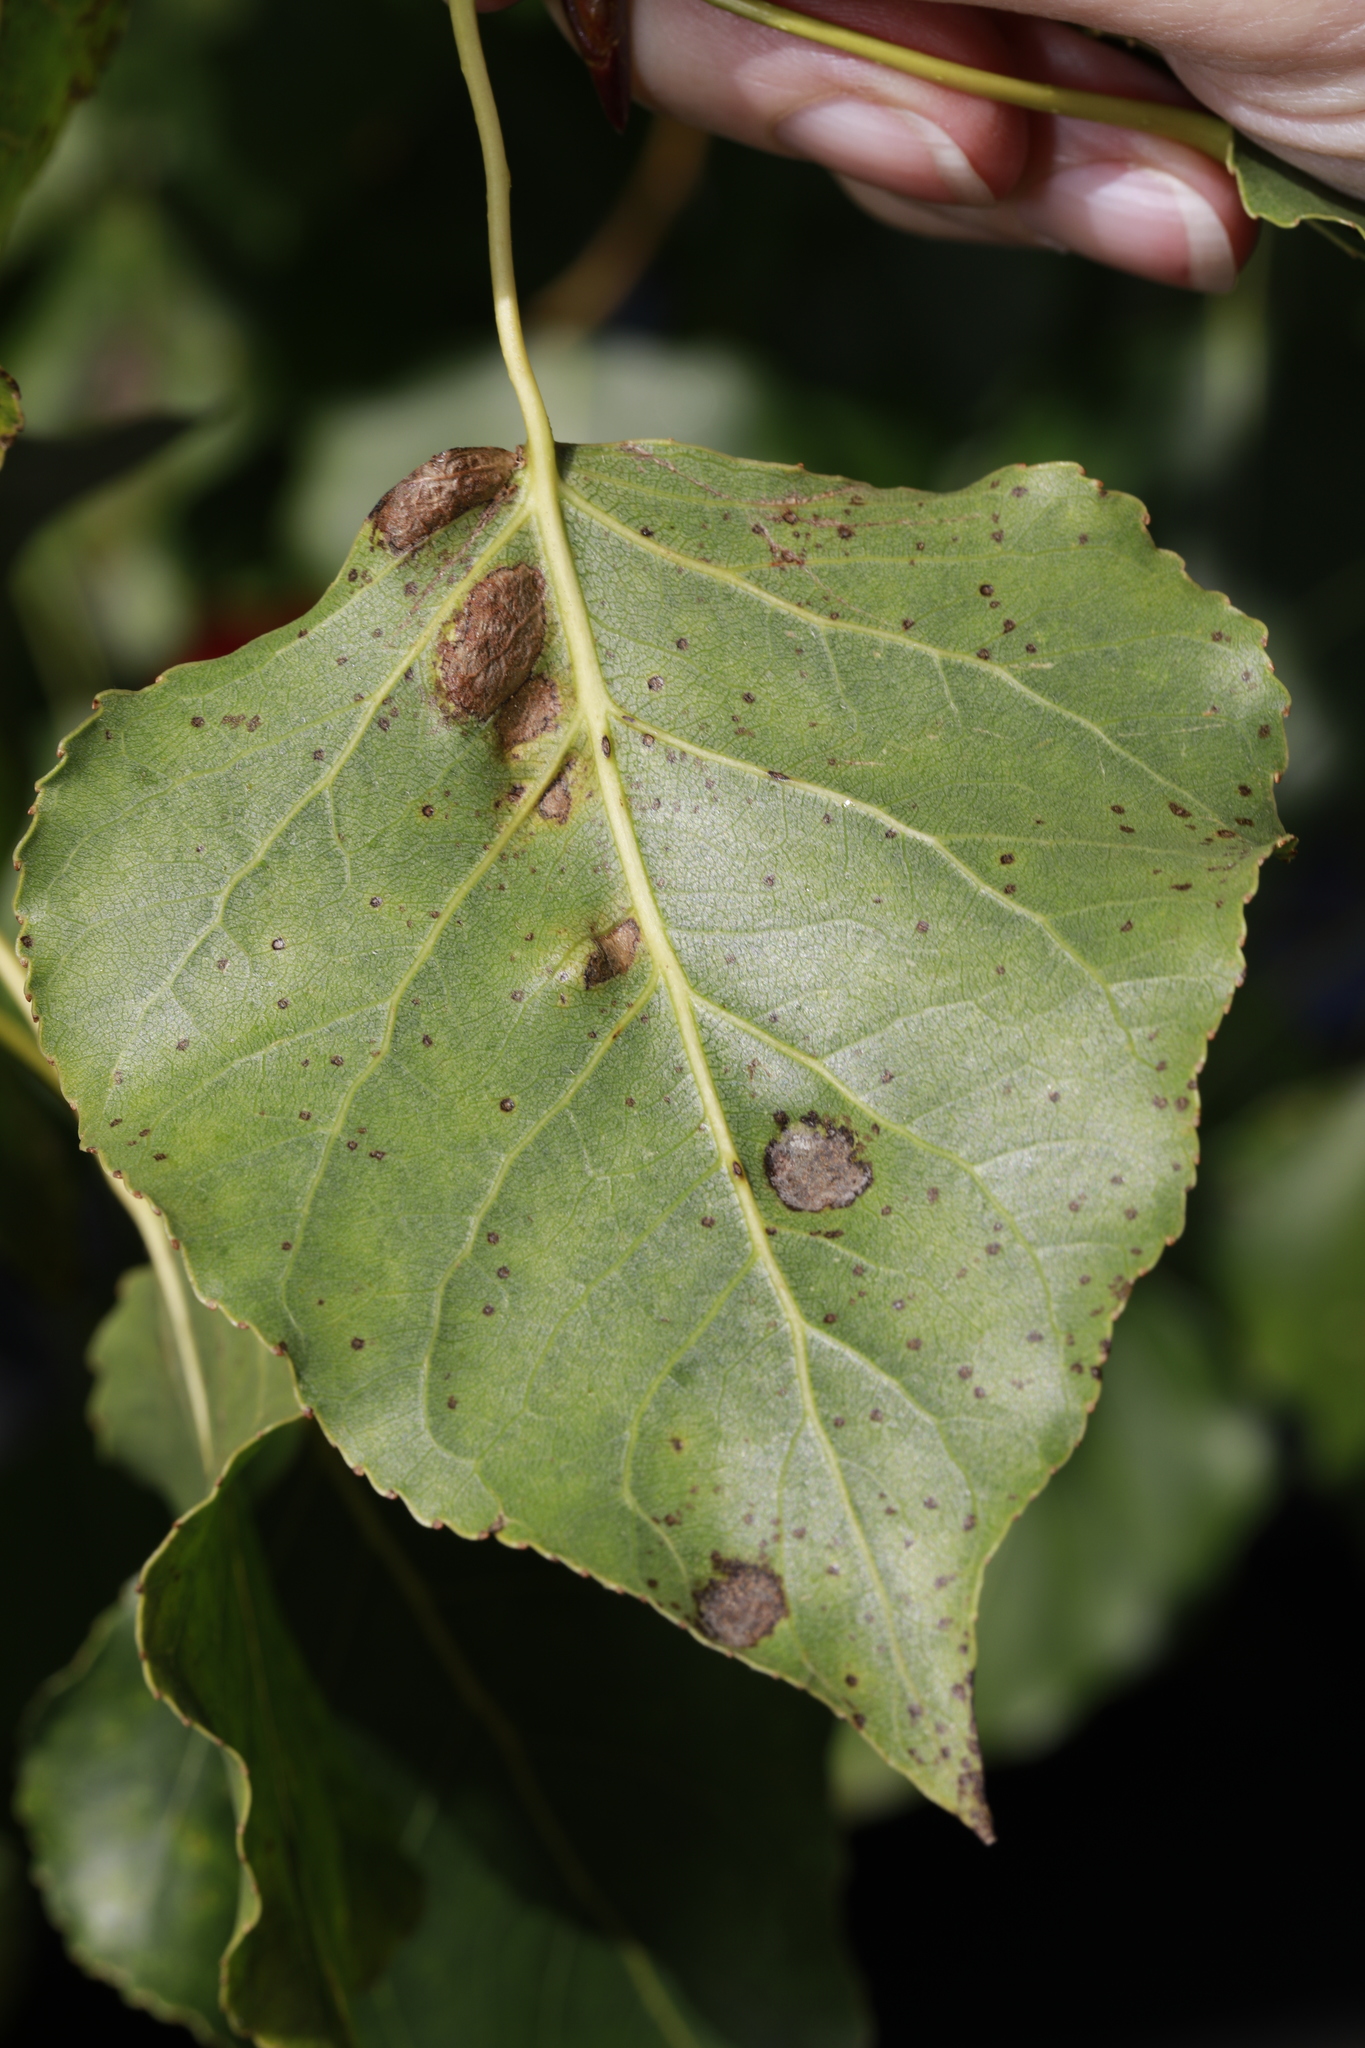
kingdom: Fungi
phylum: Ascomycota
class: Taphrinomycetes
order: Taphrinales
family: Taphrinaceae
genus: Taphrina
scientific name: Taphrina populina
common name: Poplar leaf curl
